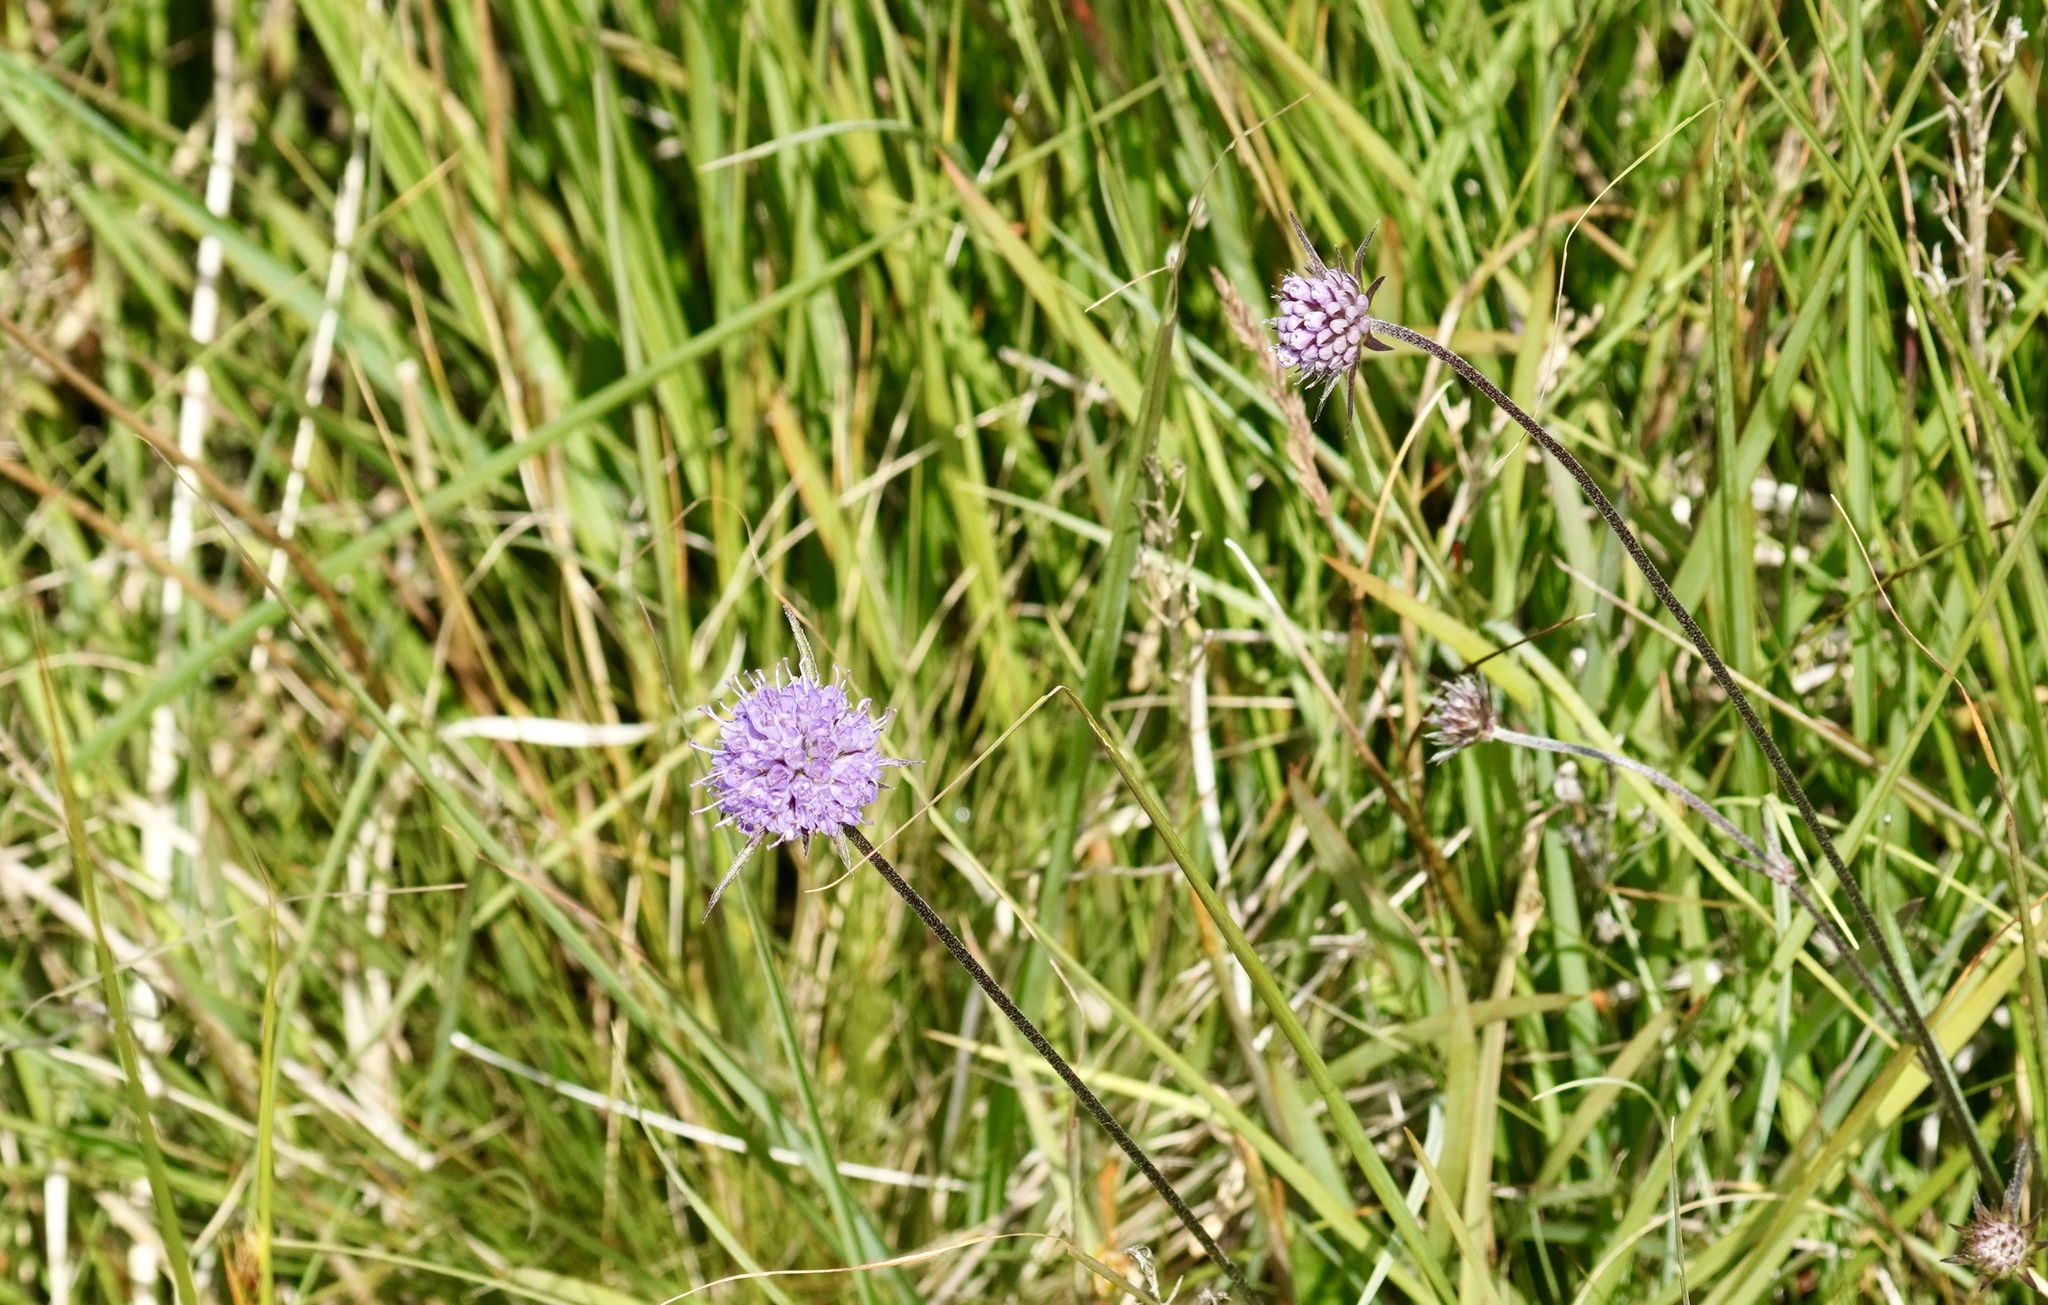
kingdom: Plantae
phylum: Tracheophyta
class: Magnoliopsida
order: Dipsacales
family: Caprifoliaceae
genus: Succisa
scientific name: Succisa pratensis
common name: Devil's-bit
